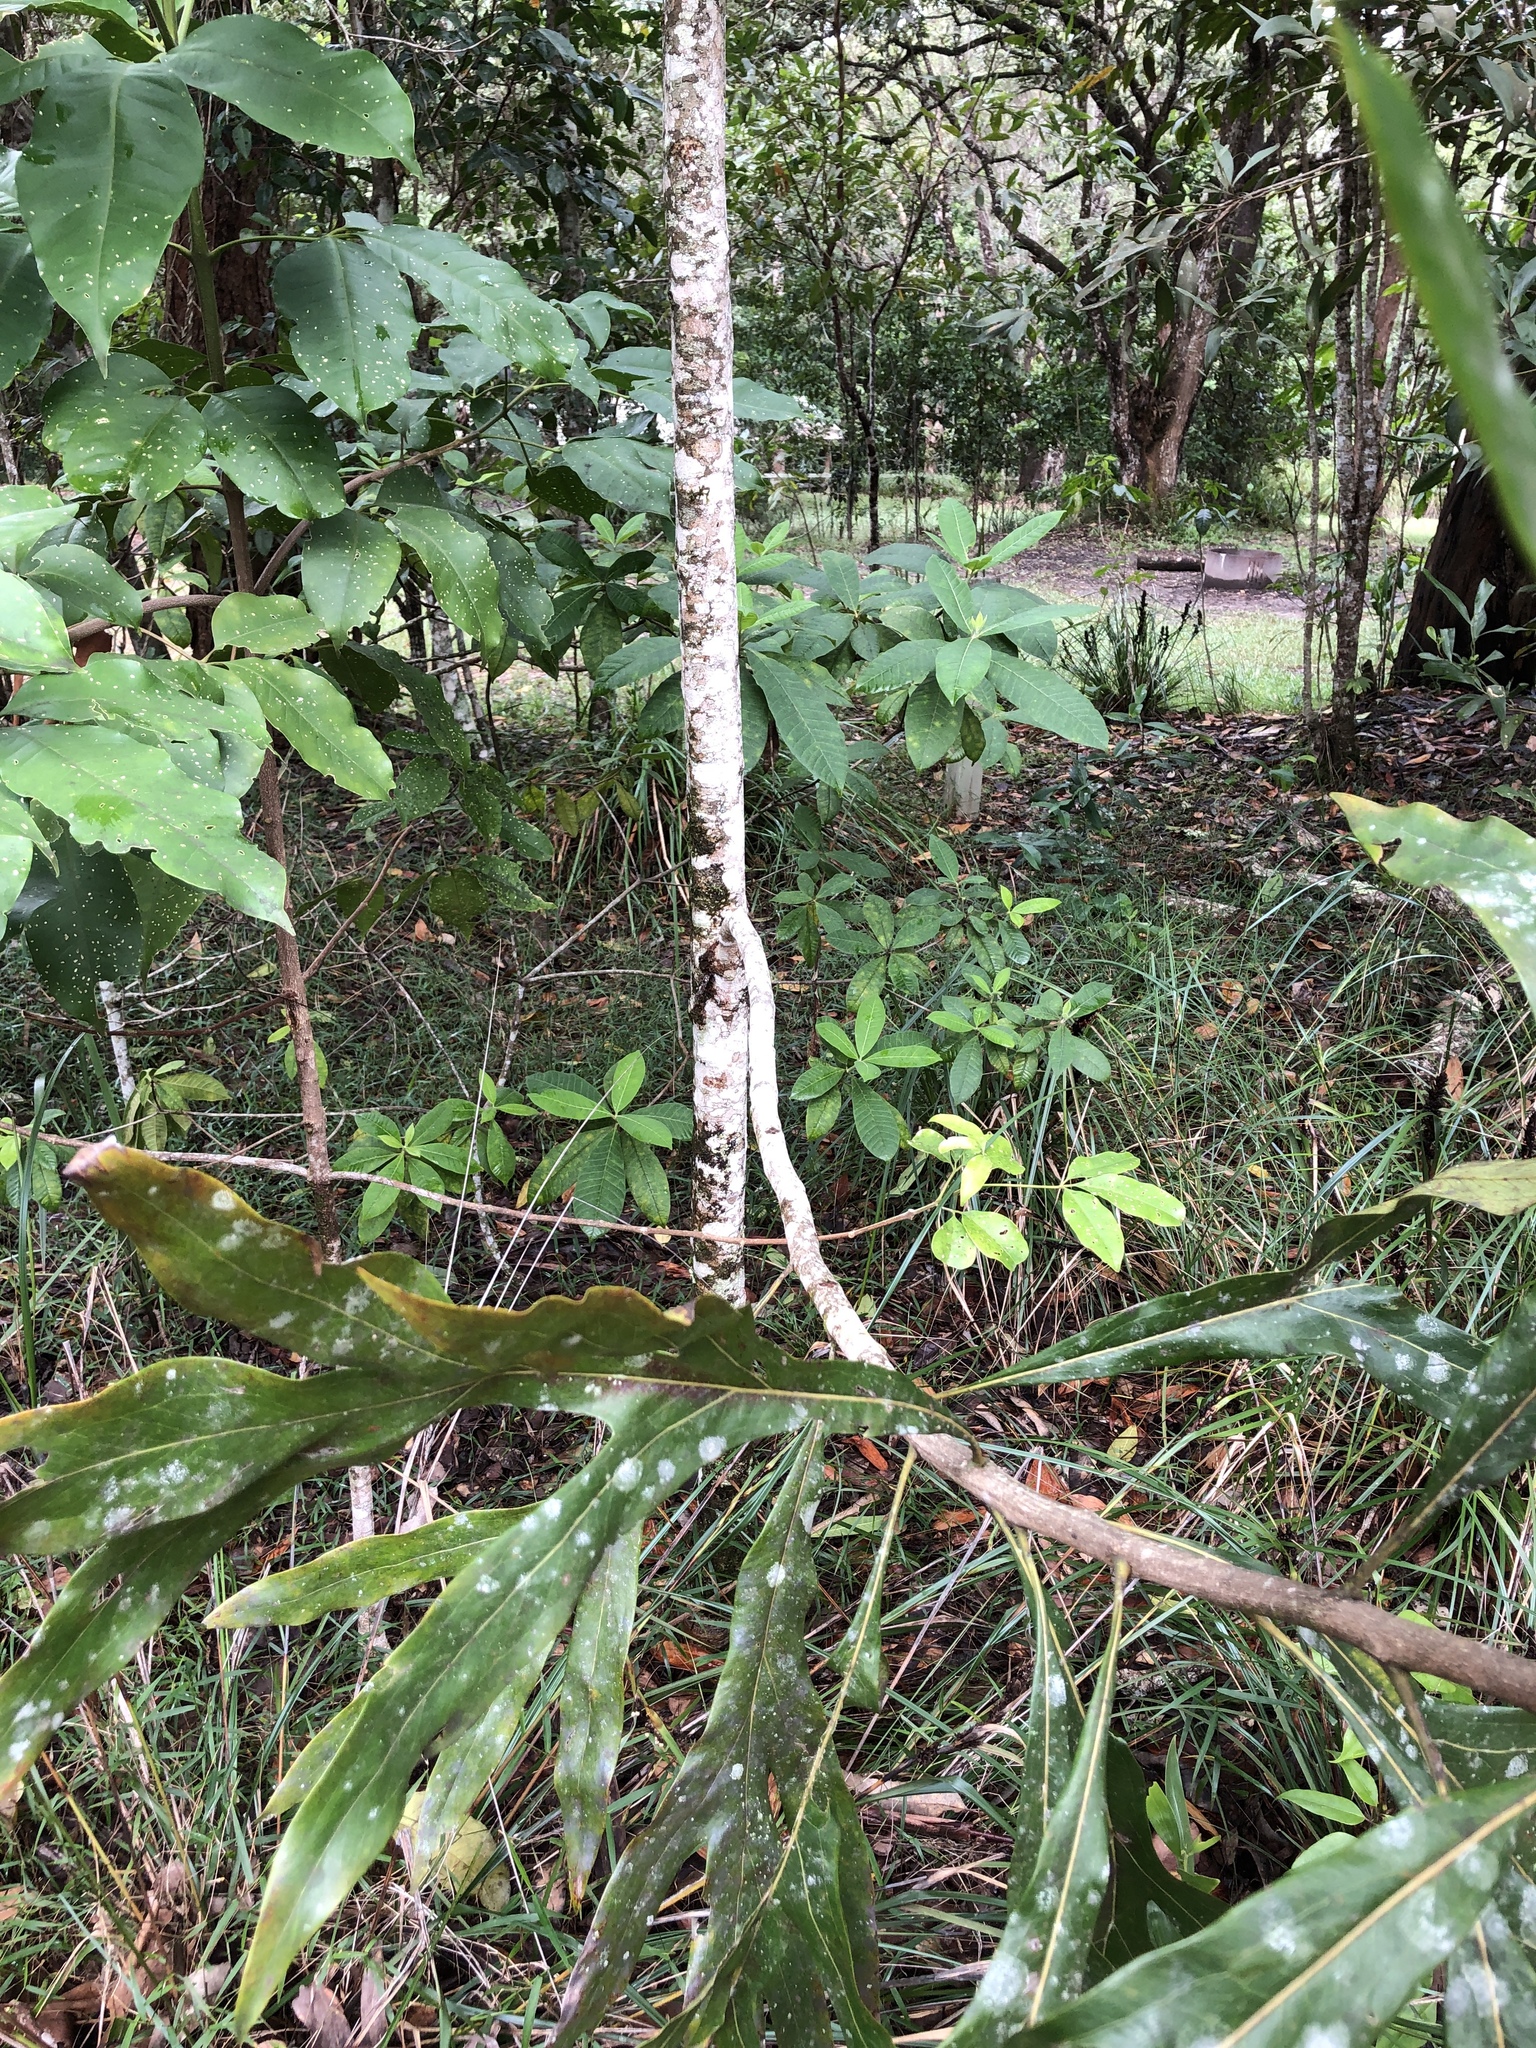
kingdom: Plantae
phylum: Tracheophyta
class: Magnoliopsida
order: Proteales
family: Proteaceae
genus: Grevillea
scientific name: Grevillea hilliana
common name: White silky-oak
